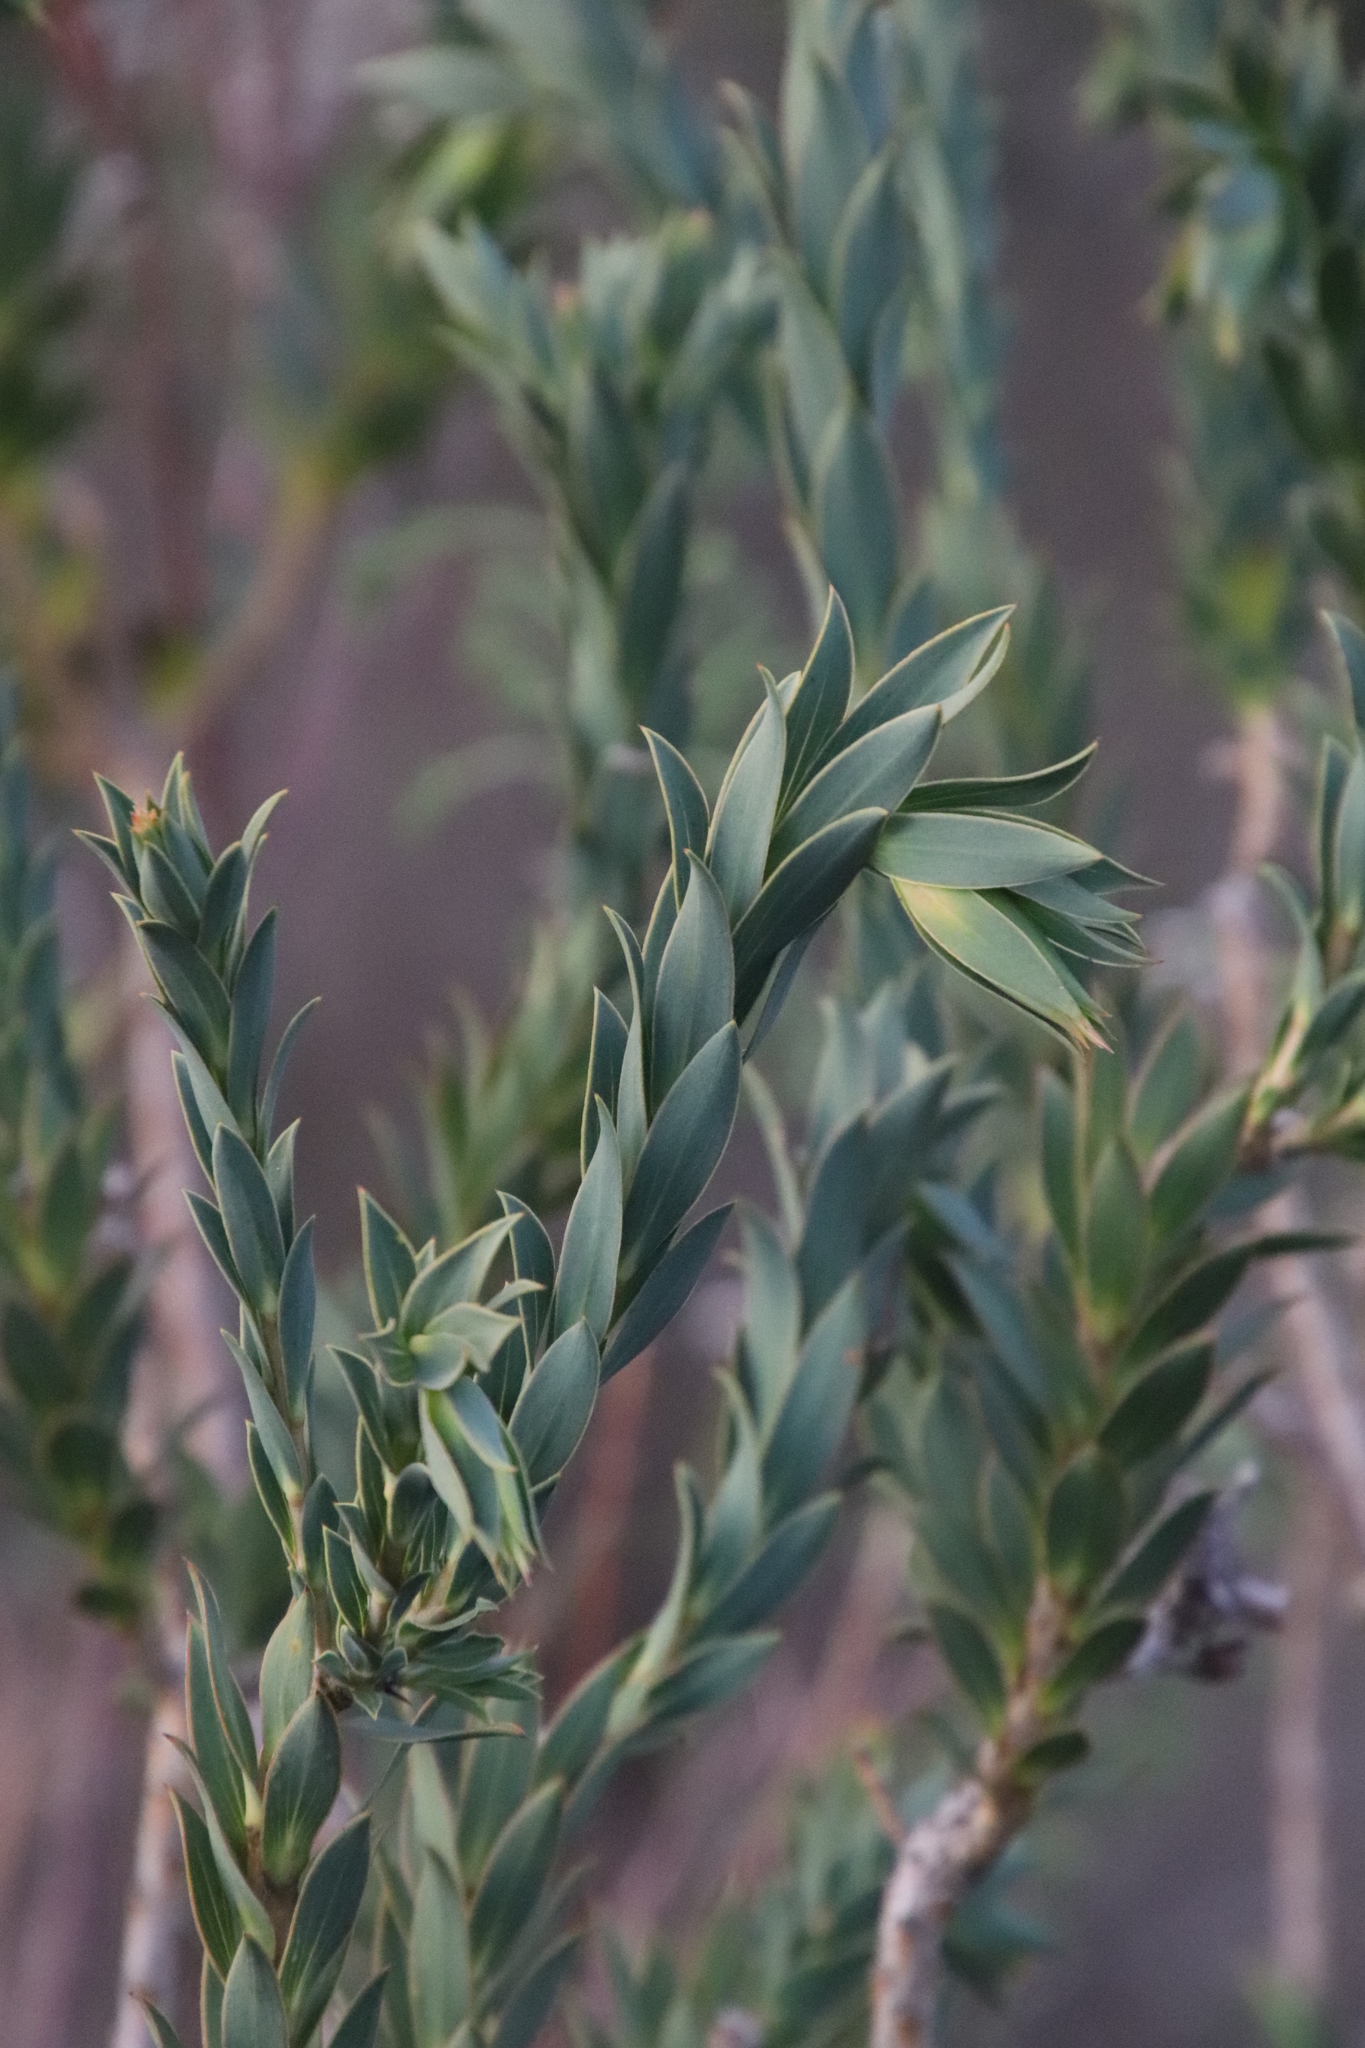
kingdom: Plantae
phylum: Tracheophyta
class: Magnoliopsida
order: Fabales
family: Fabaceae
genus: Liparia
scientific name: Liparia splendens
